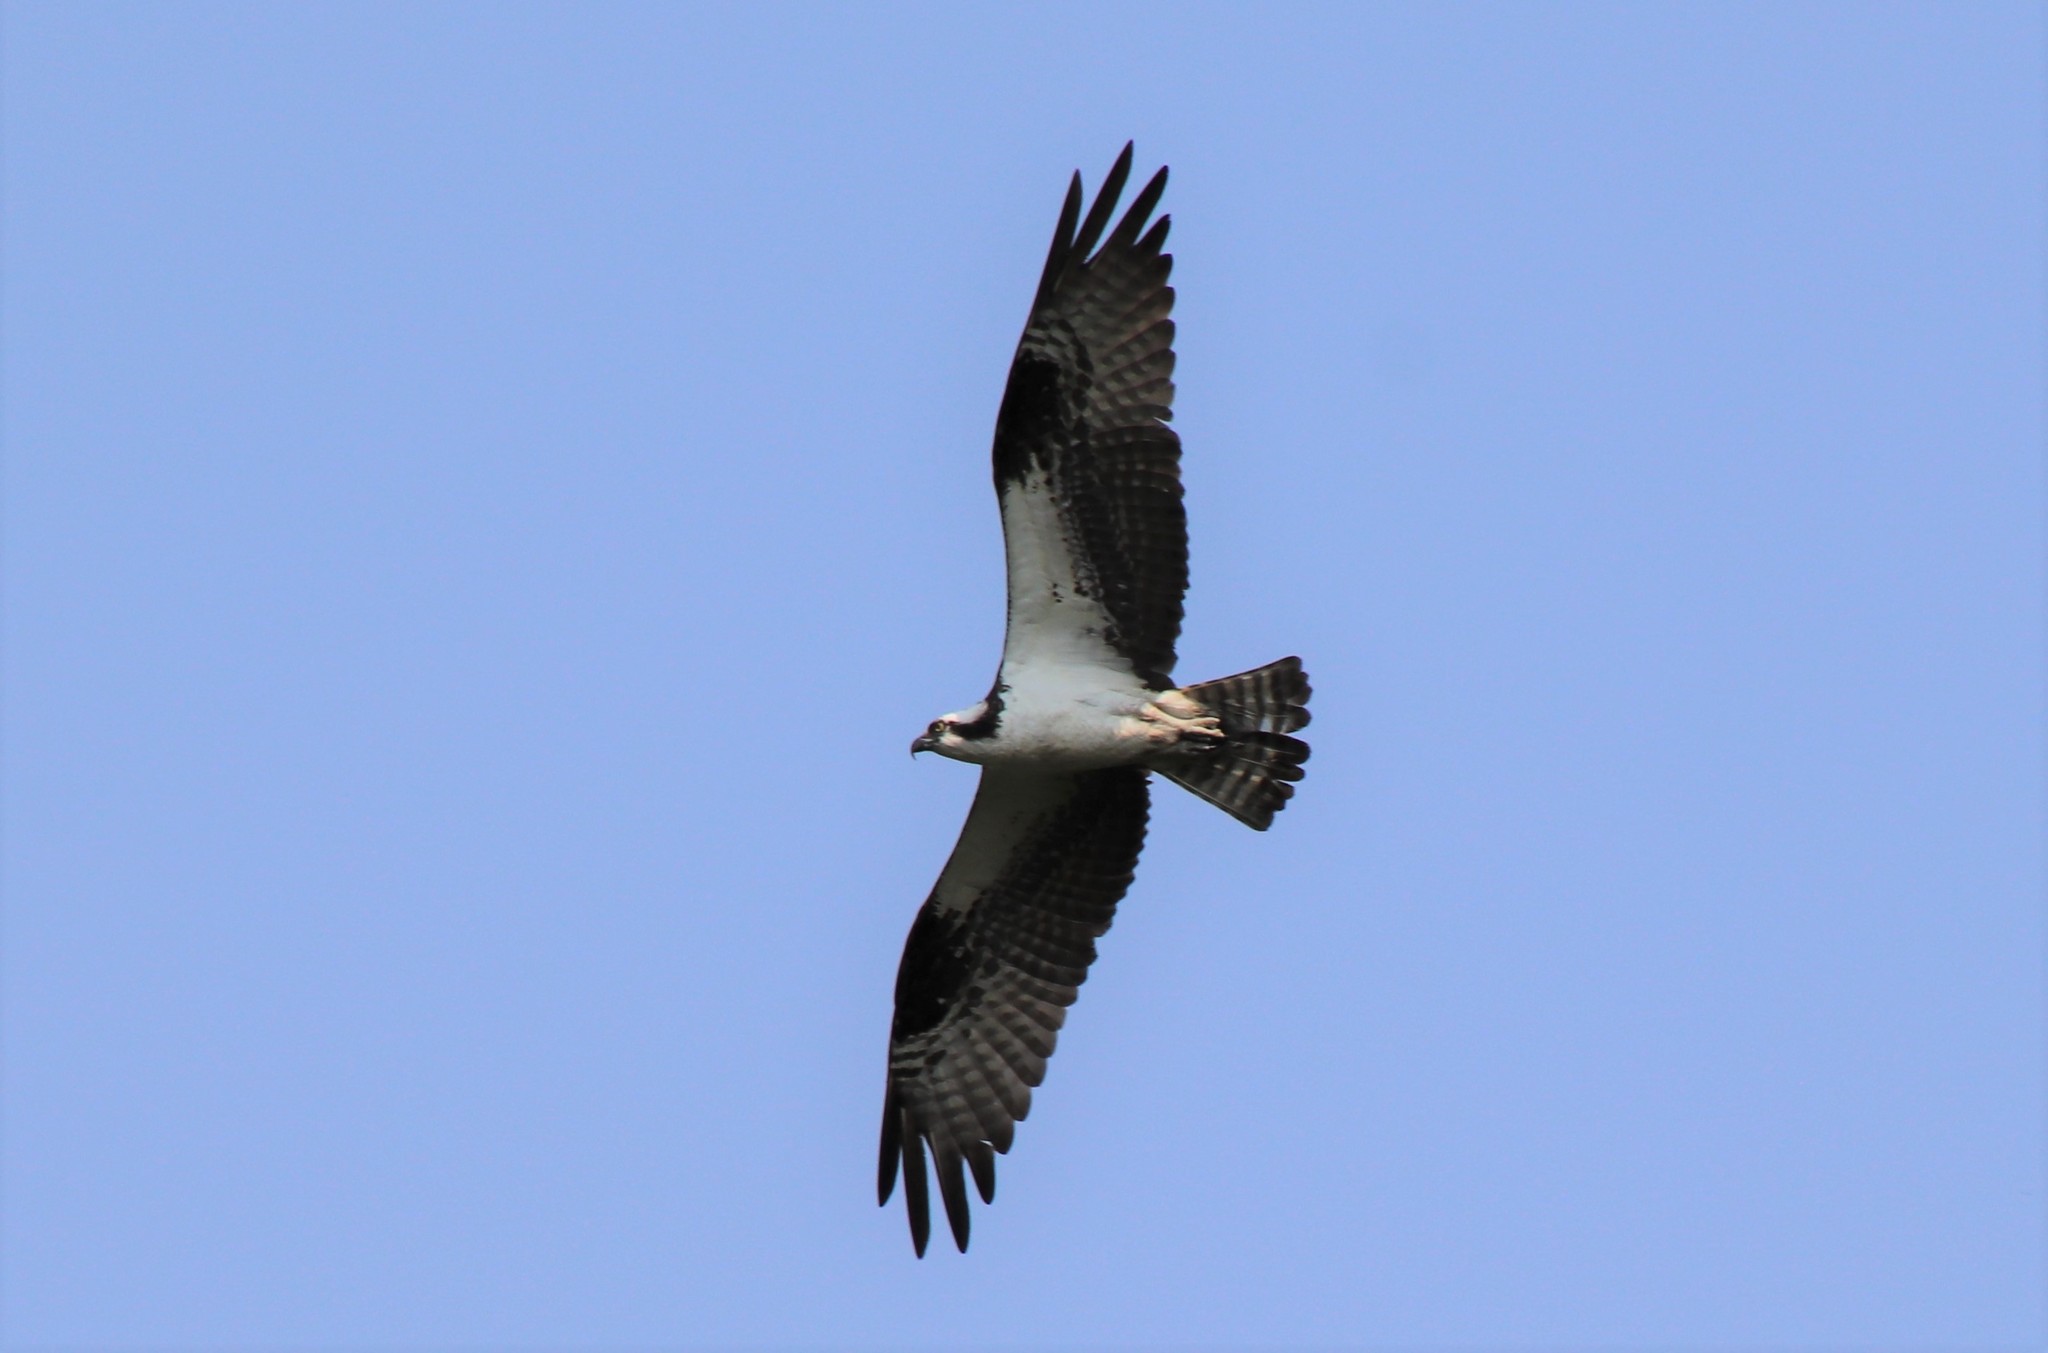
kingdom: Animalia
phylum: Chordata
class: Aves
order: Accipitriformes
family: Pandionidae
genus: Pandion
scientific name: Pandion haliaetus
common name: Osprey
